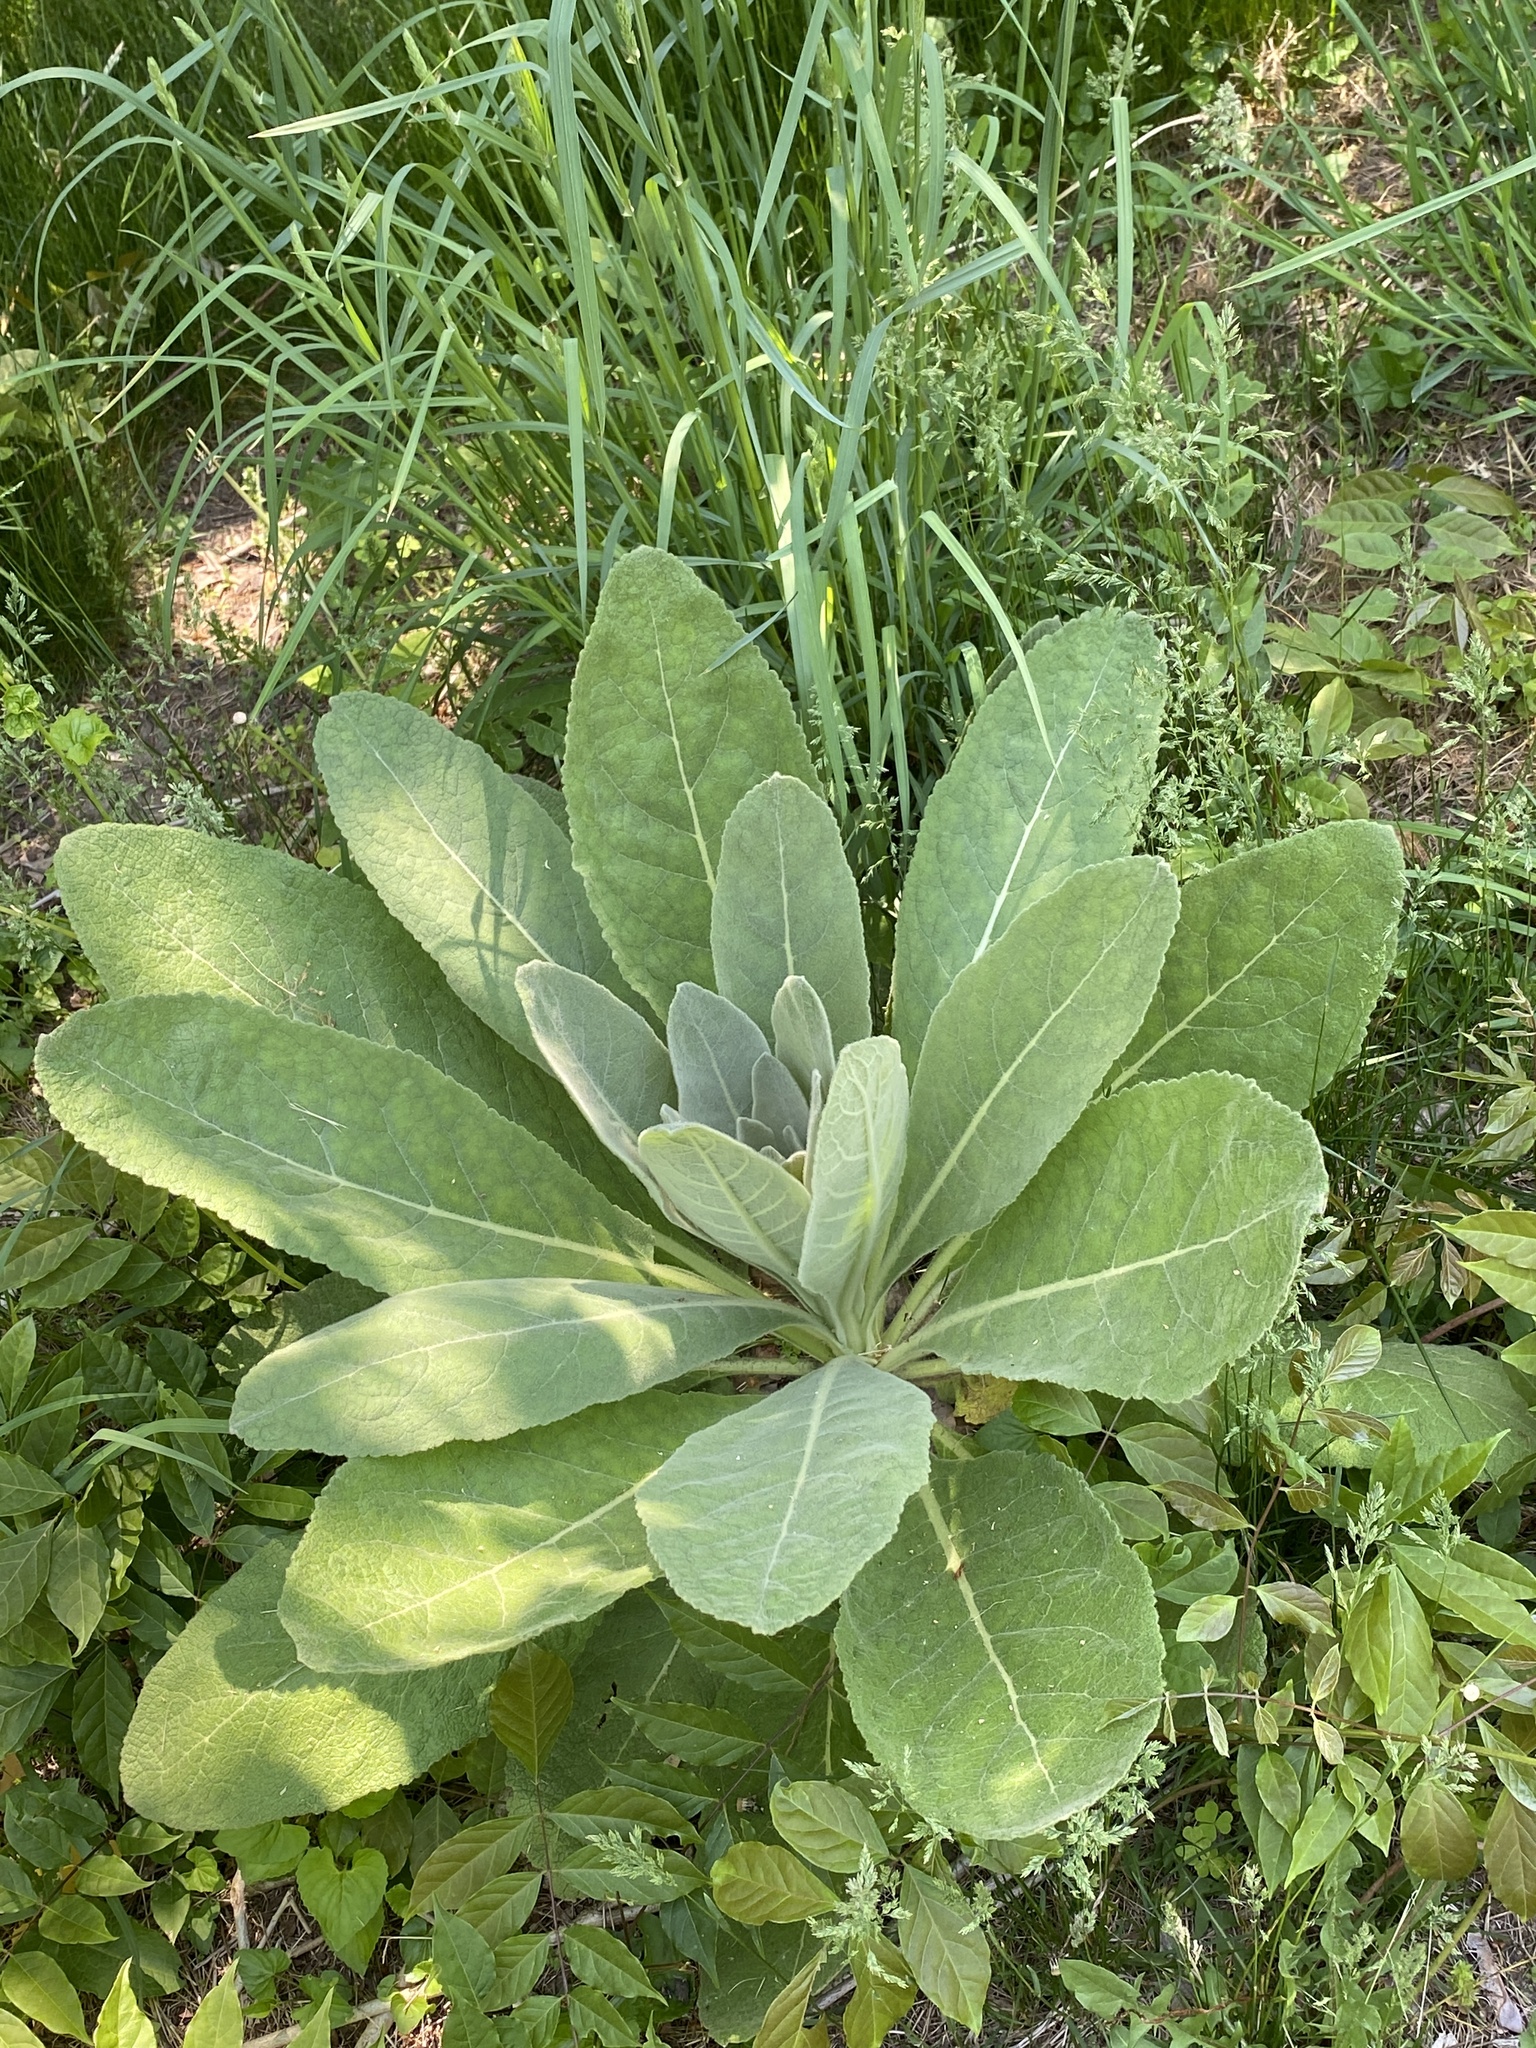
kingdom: Plantae
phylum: Tracheophyta
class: Magnoliopsida
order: Lamiales
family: Scrophulariaceae
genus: Verbascum
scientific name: Verbascum thapsus
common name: Common mullein
